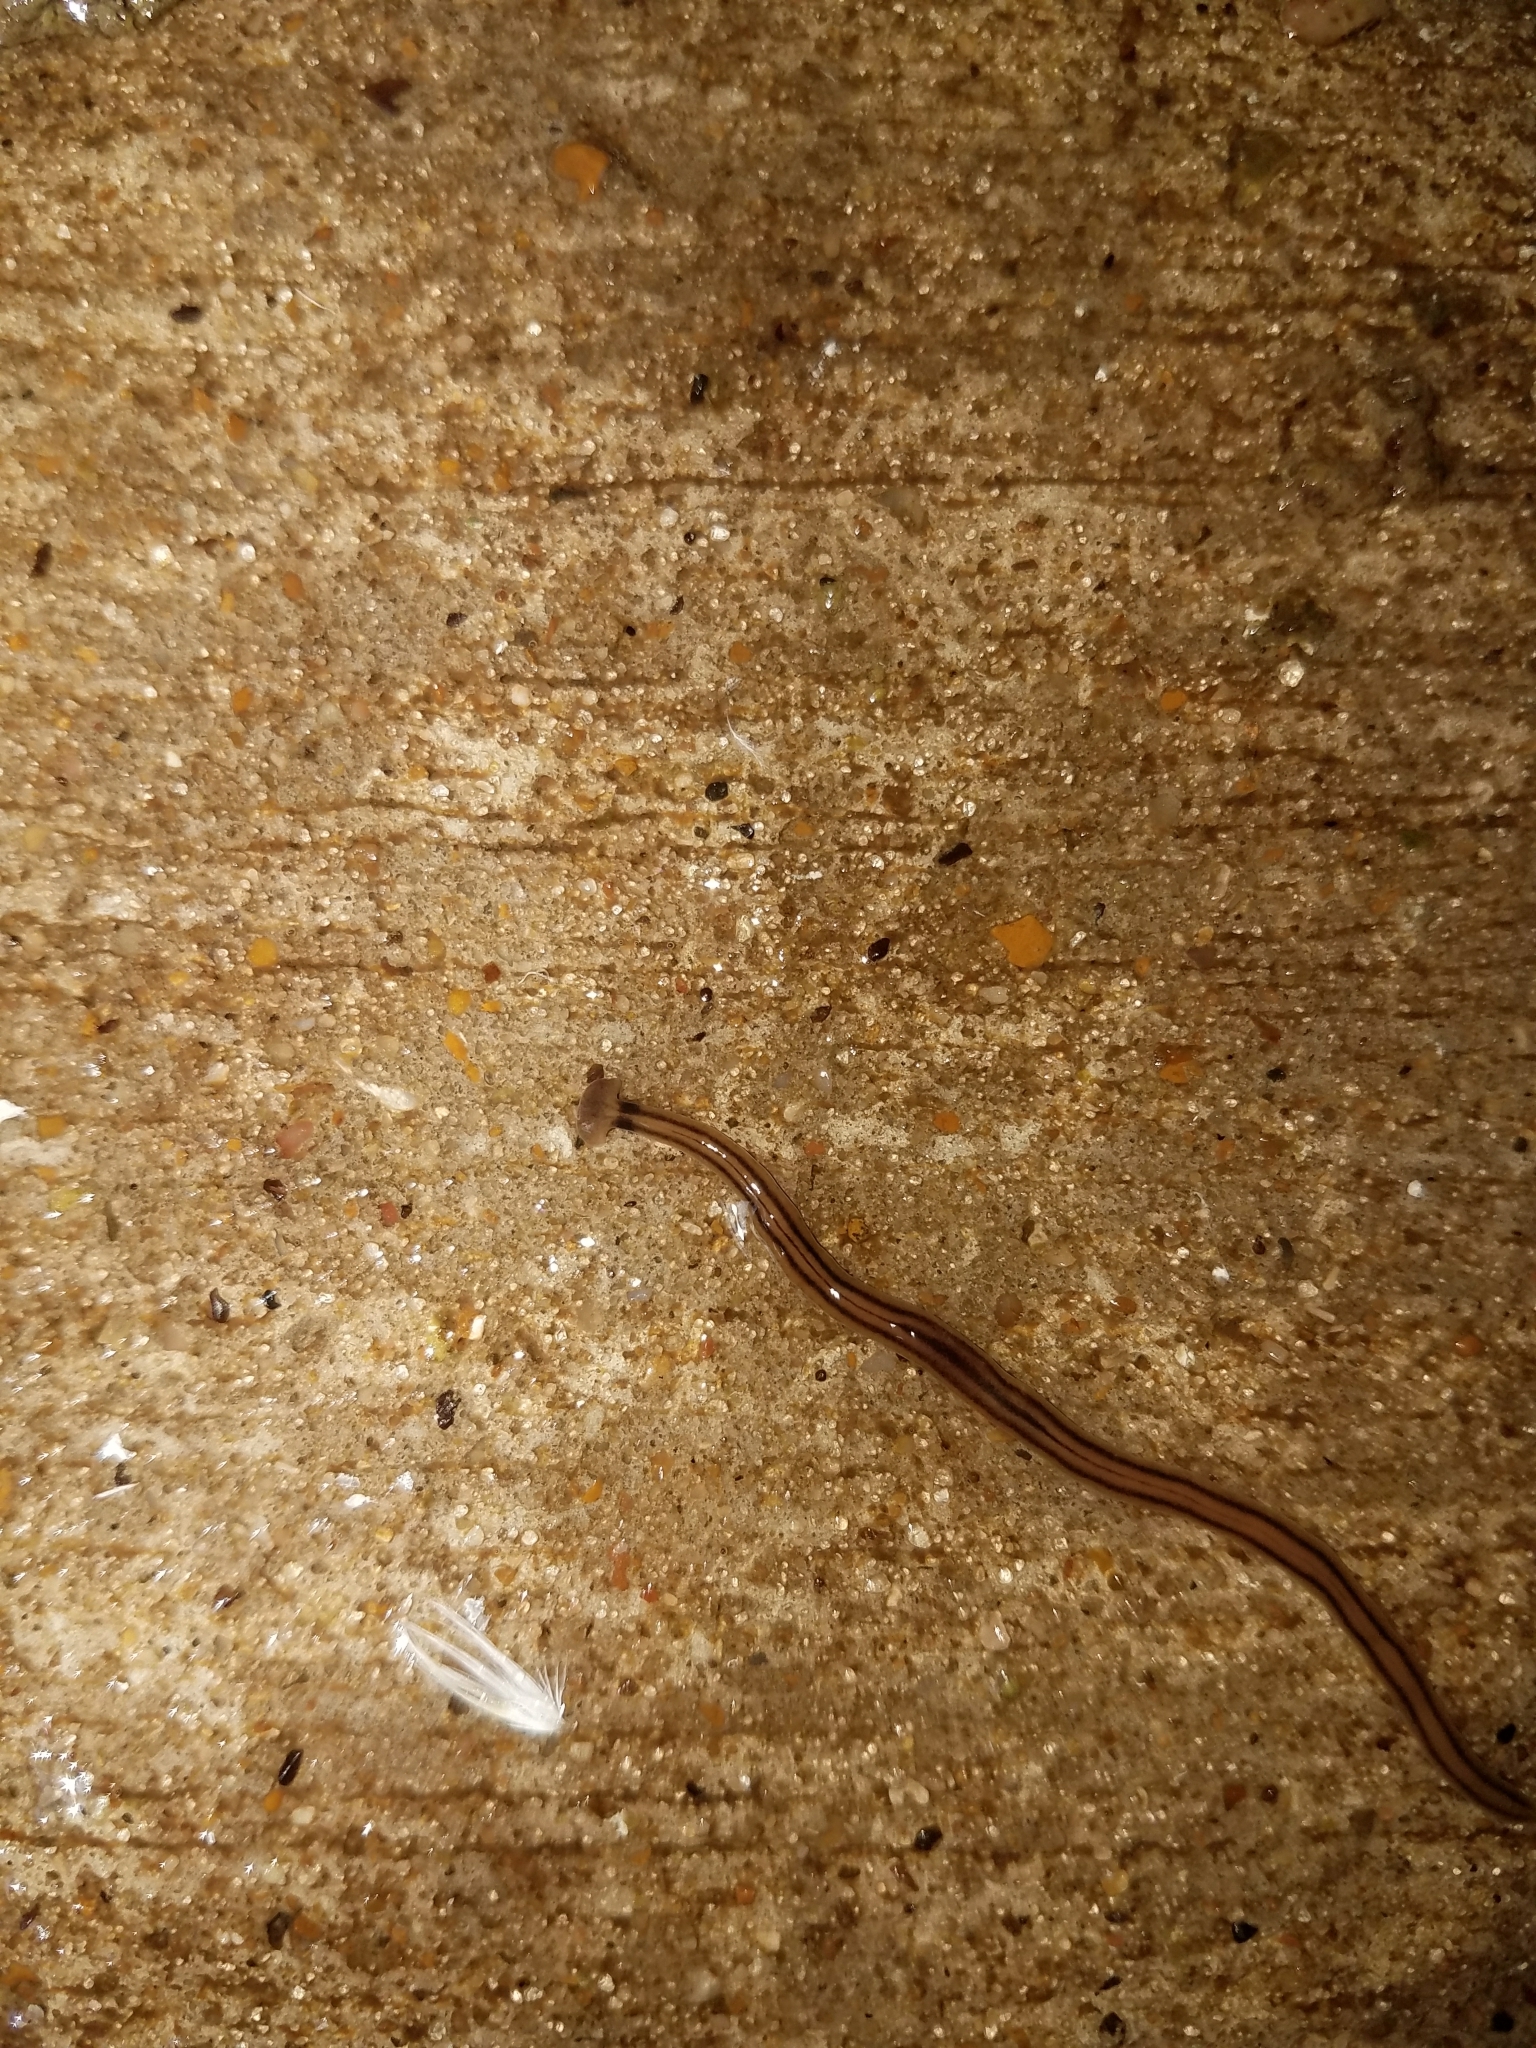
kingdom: Animalia
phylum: Platyhelminthes
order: Tricladida
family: Geoplanidae
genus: Bipalium
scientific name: Bipalium kewense
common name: Hammerhead flatworm
